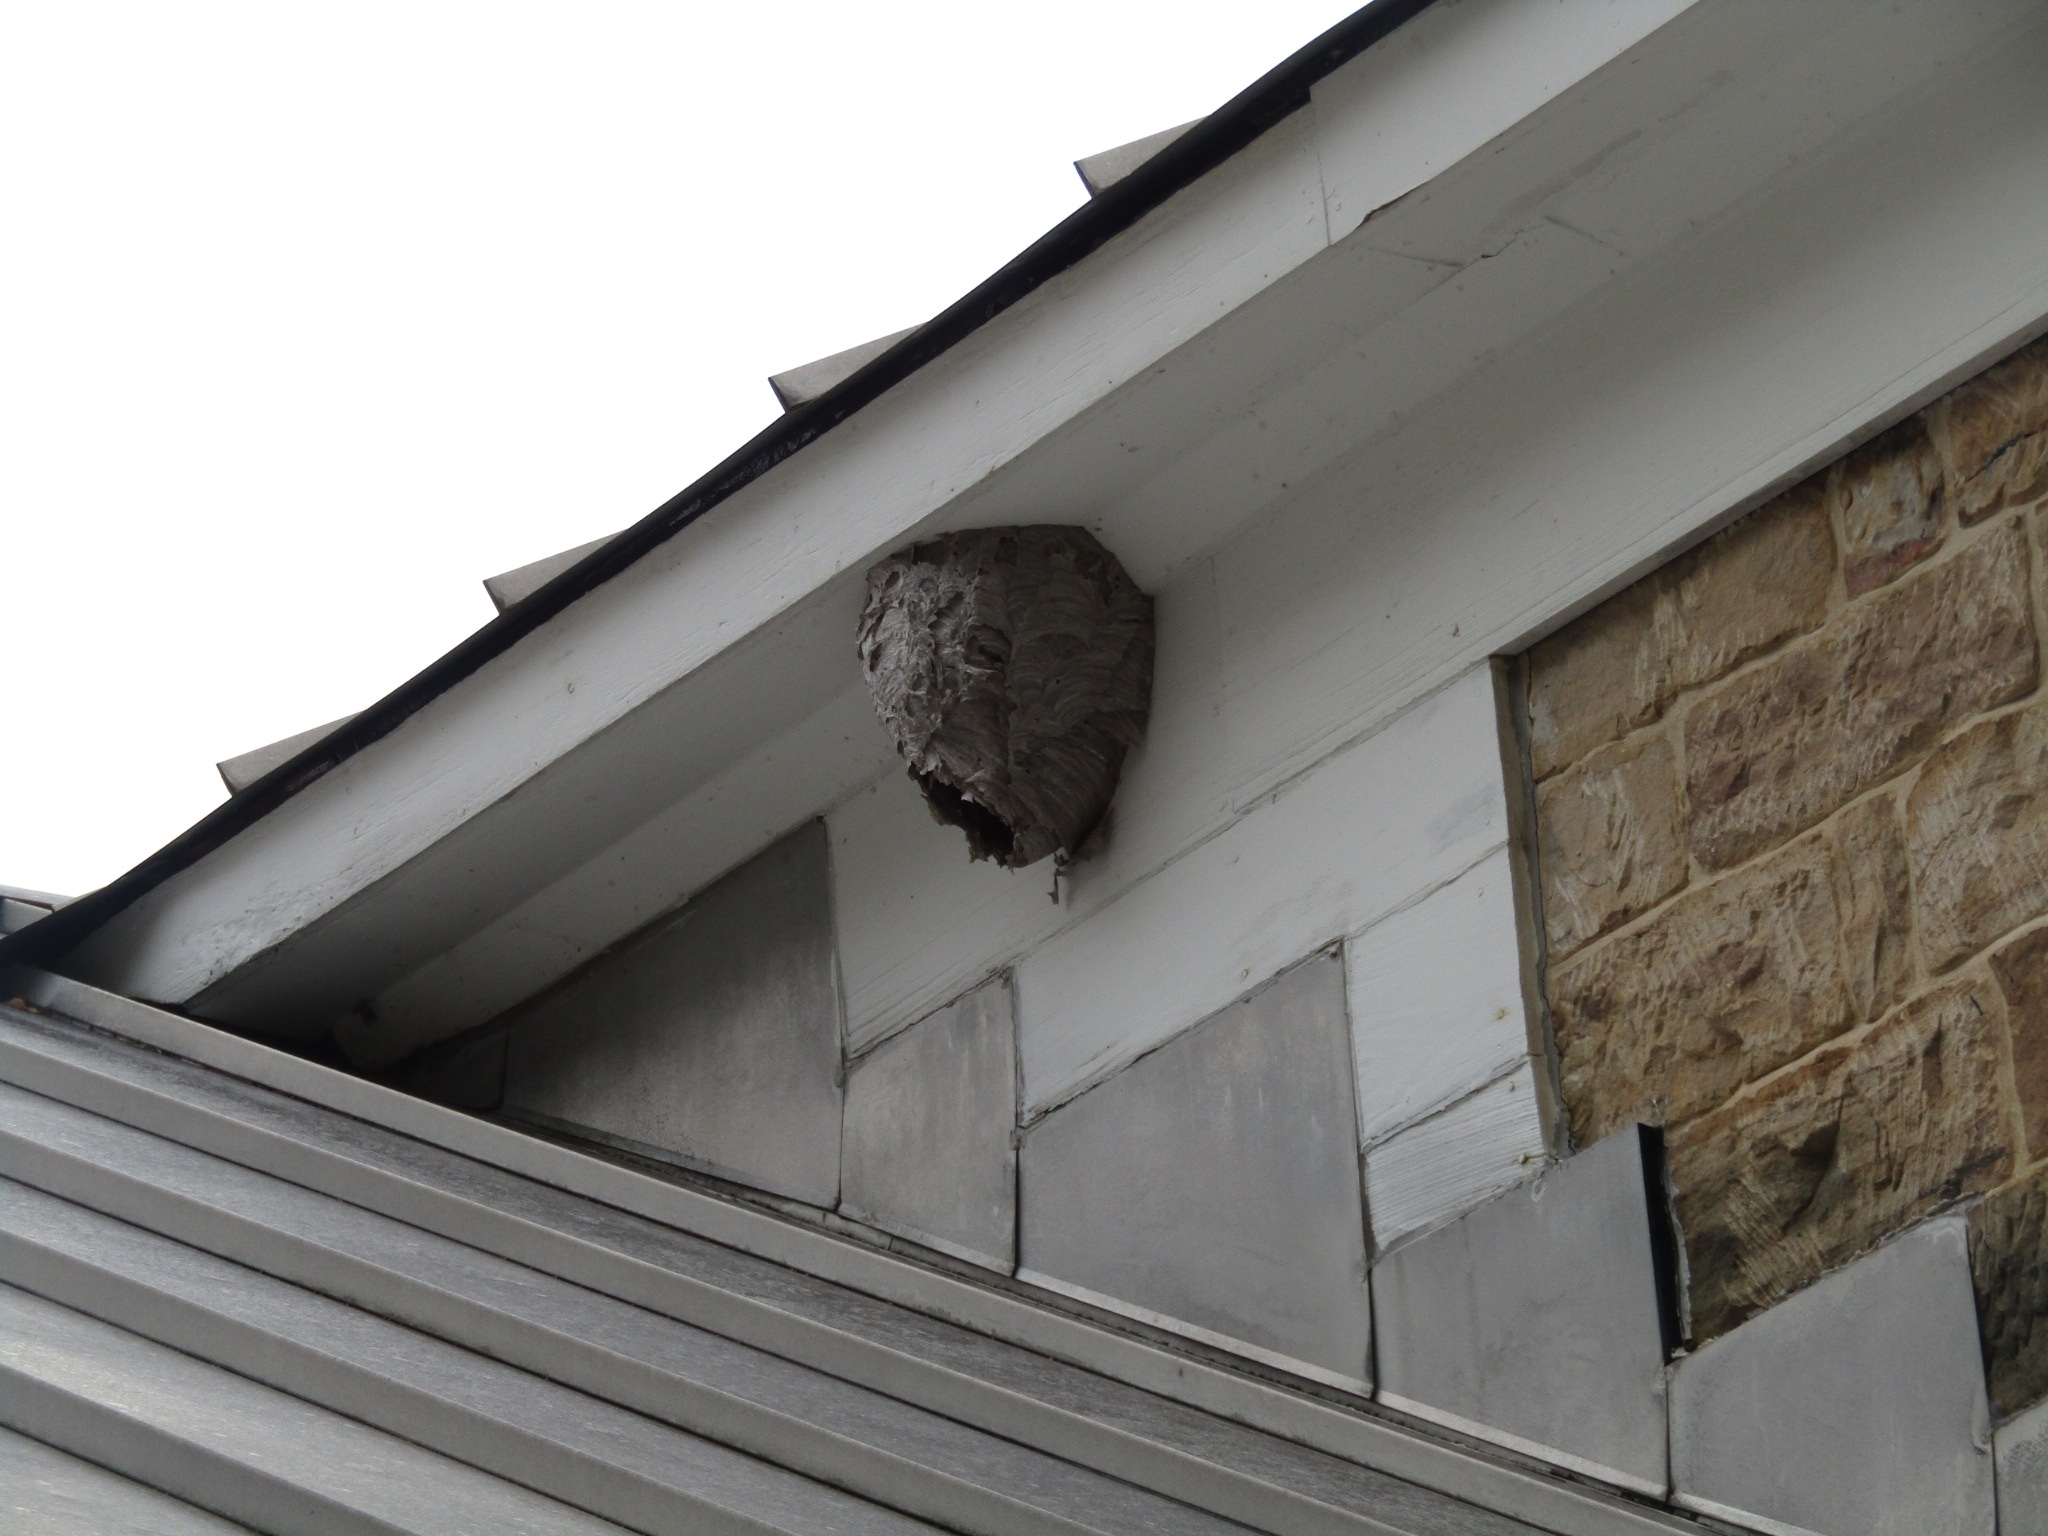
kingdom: Animalia
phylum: Arthropoda
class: Insecta
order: Hymenoptera
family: Vespidae
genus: Dolichovespula
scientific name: Dolichovespula maculata
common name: Bald-faced hornet
